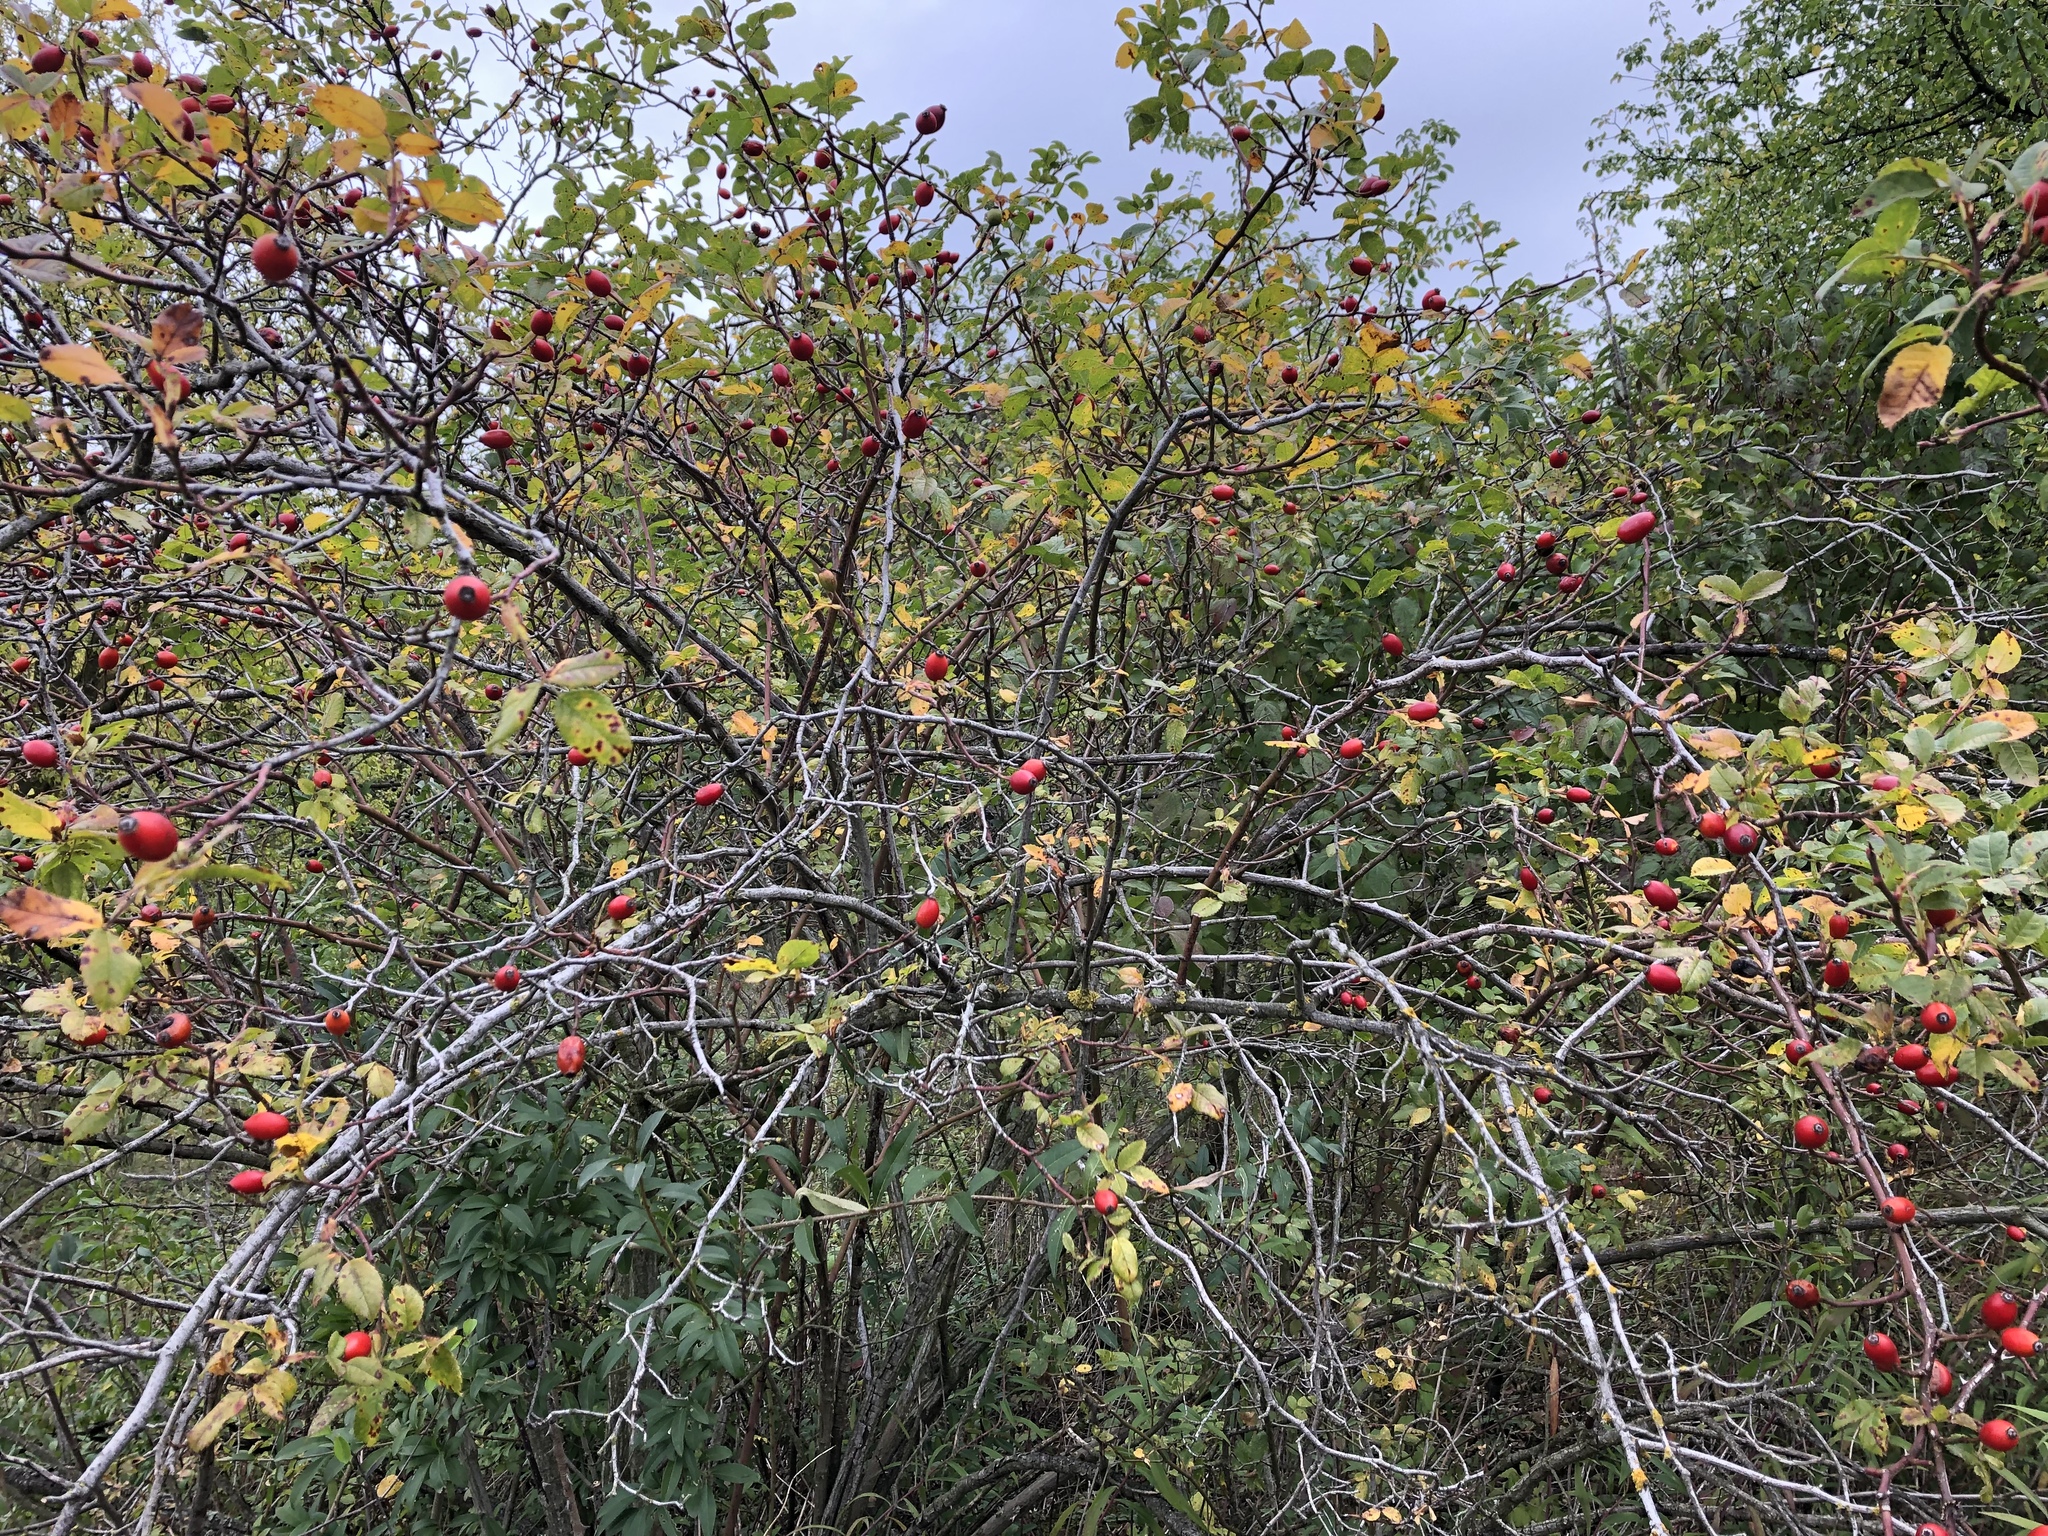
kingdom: Plantae
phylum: Tracheophyta
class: Magnoliopsida
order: Rosales
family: Rosaceae
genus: Rosa
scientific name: Rosa canina
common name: Dog rose
